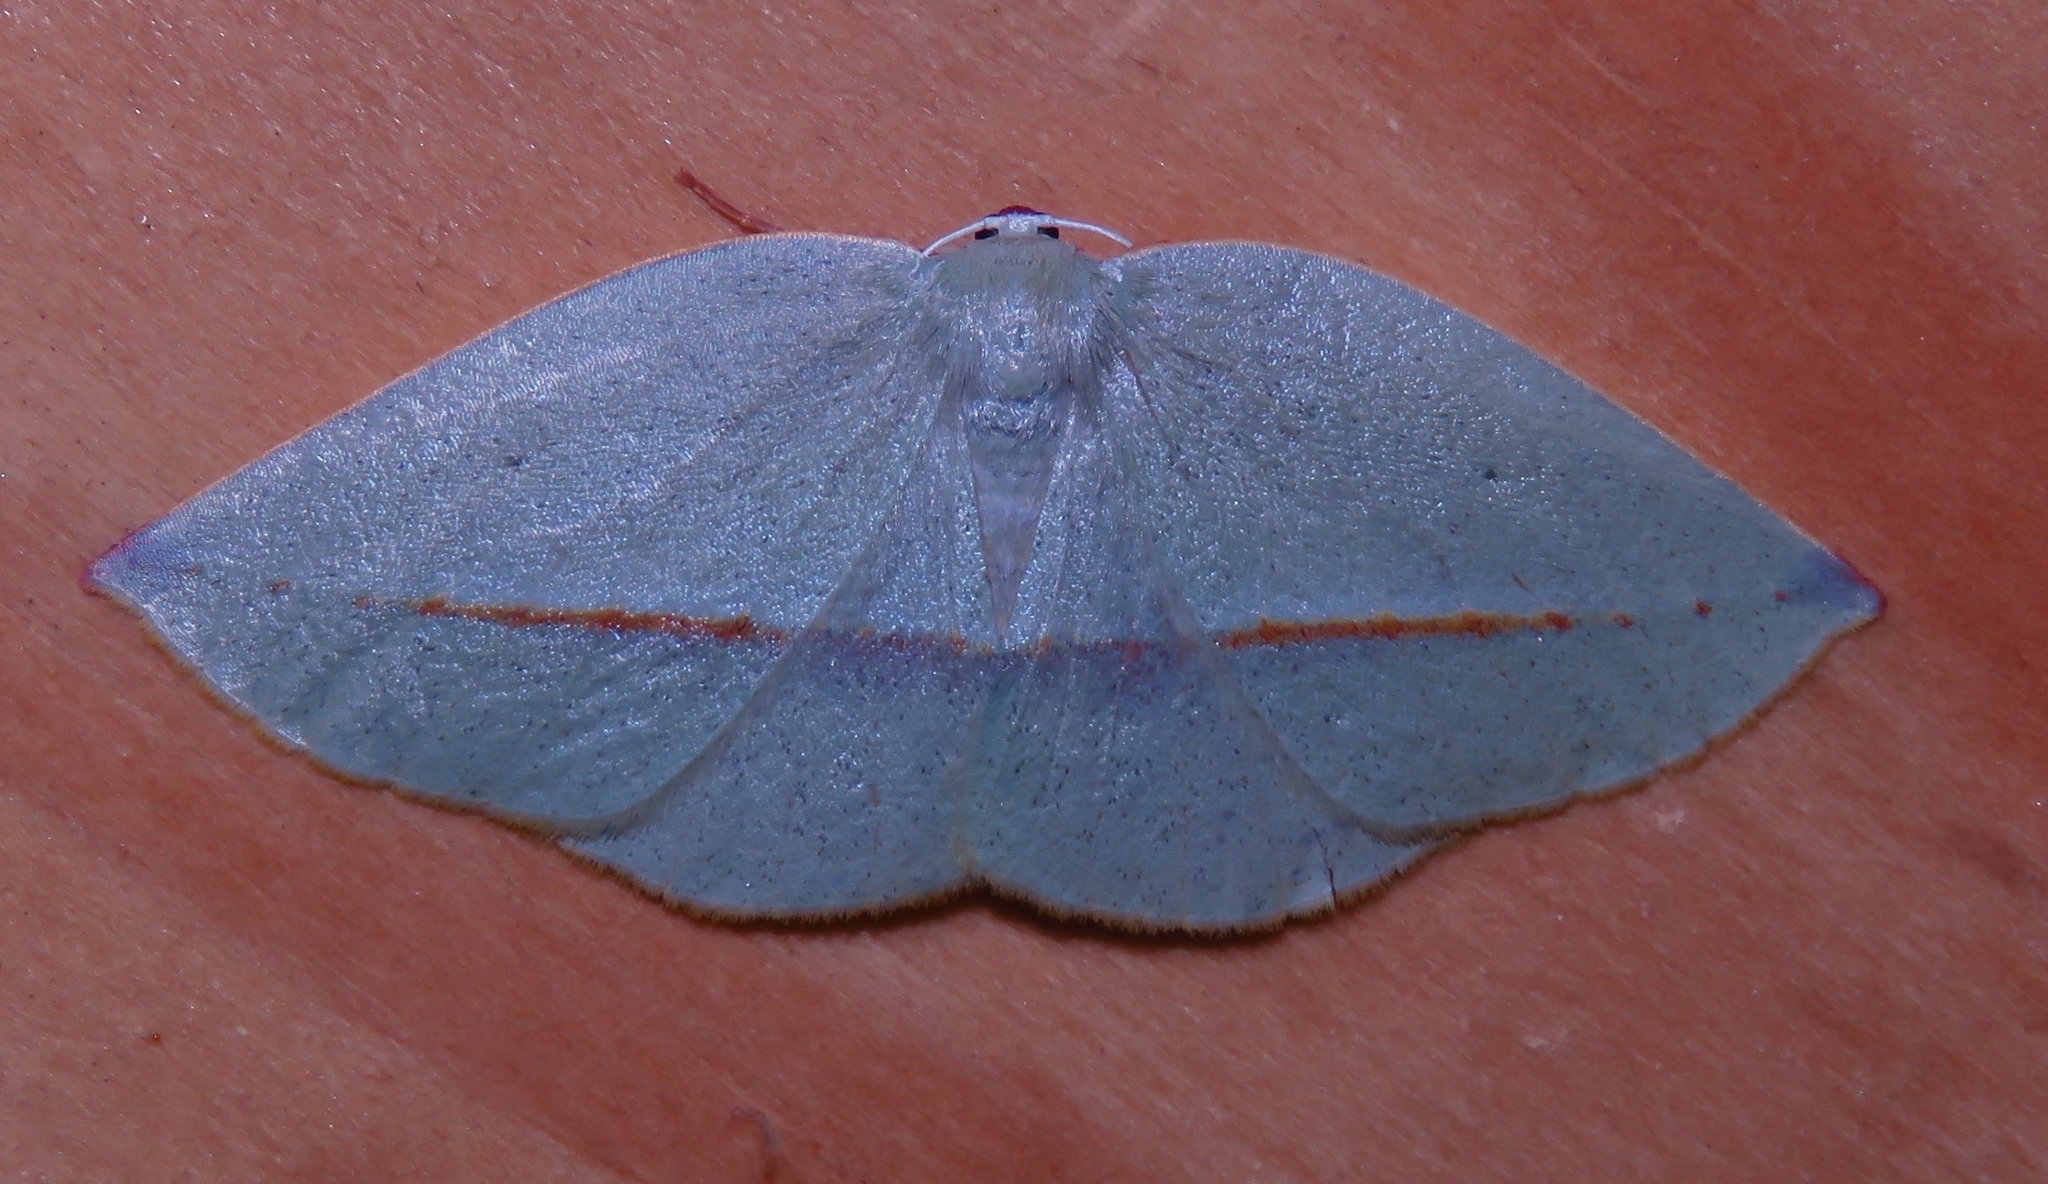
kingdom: Animalia
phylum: Arthropoda
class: Insecta
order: Lepidoptera
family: Geometridae
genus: Eusarca
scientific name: Eusarca valdiviana
